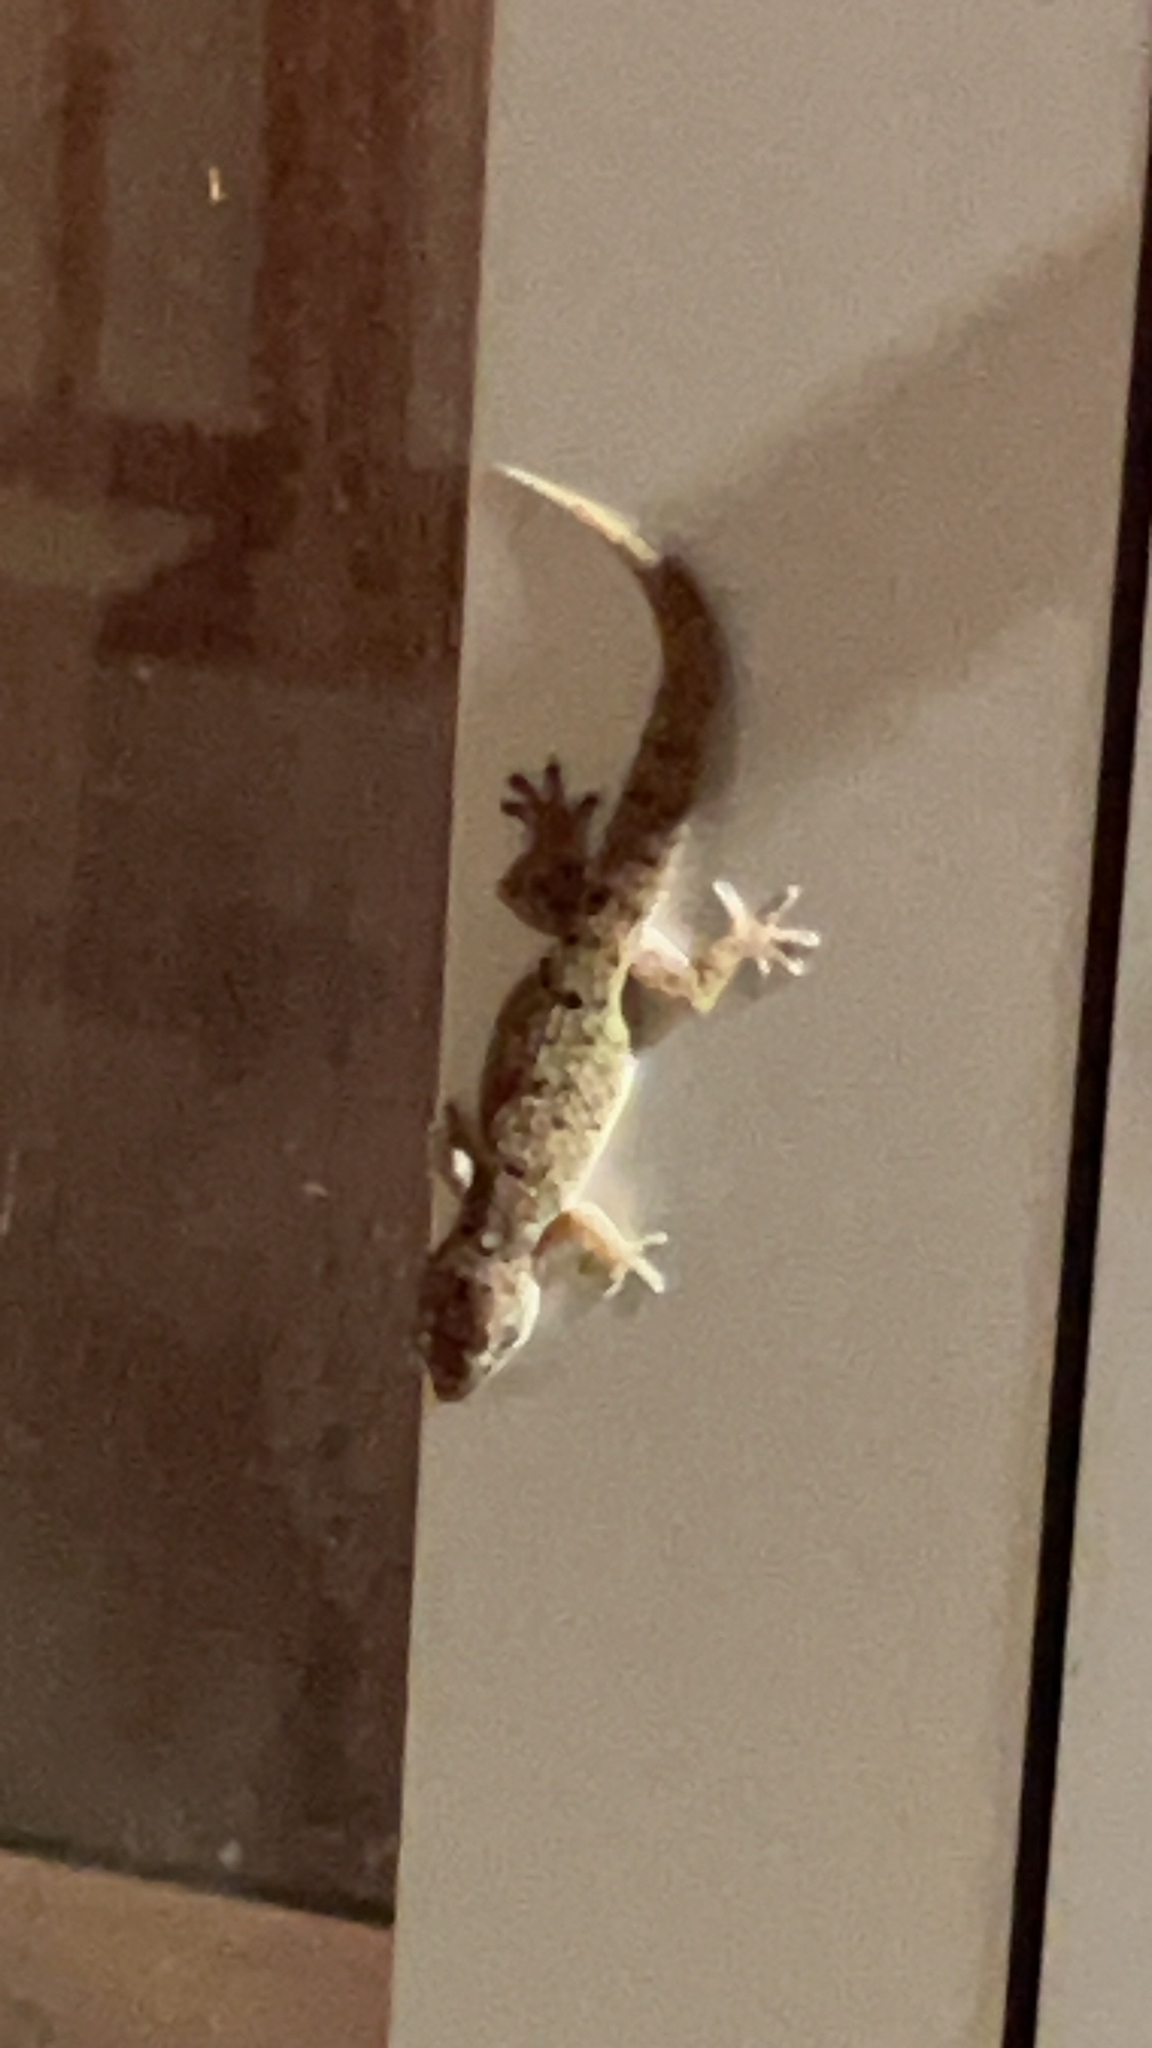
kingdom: Animalia
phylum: Chordata
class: Squamata
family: Gekkonidae
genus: Hemidactylus
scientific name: Hemidactylus parvimaculatus
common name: Spotted house gecko
